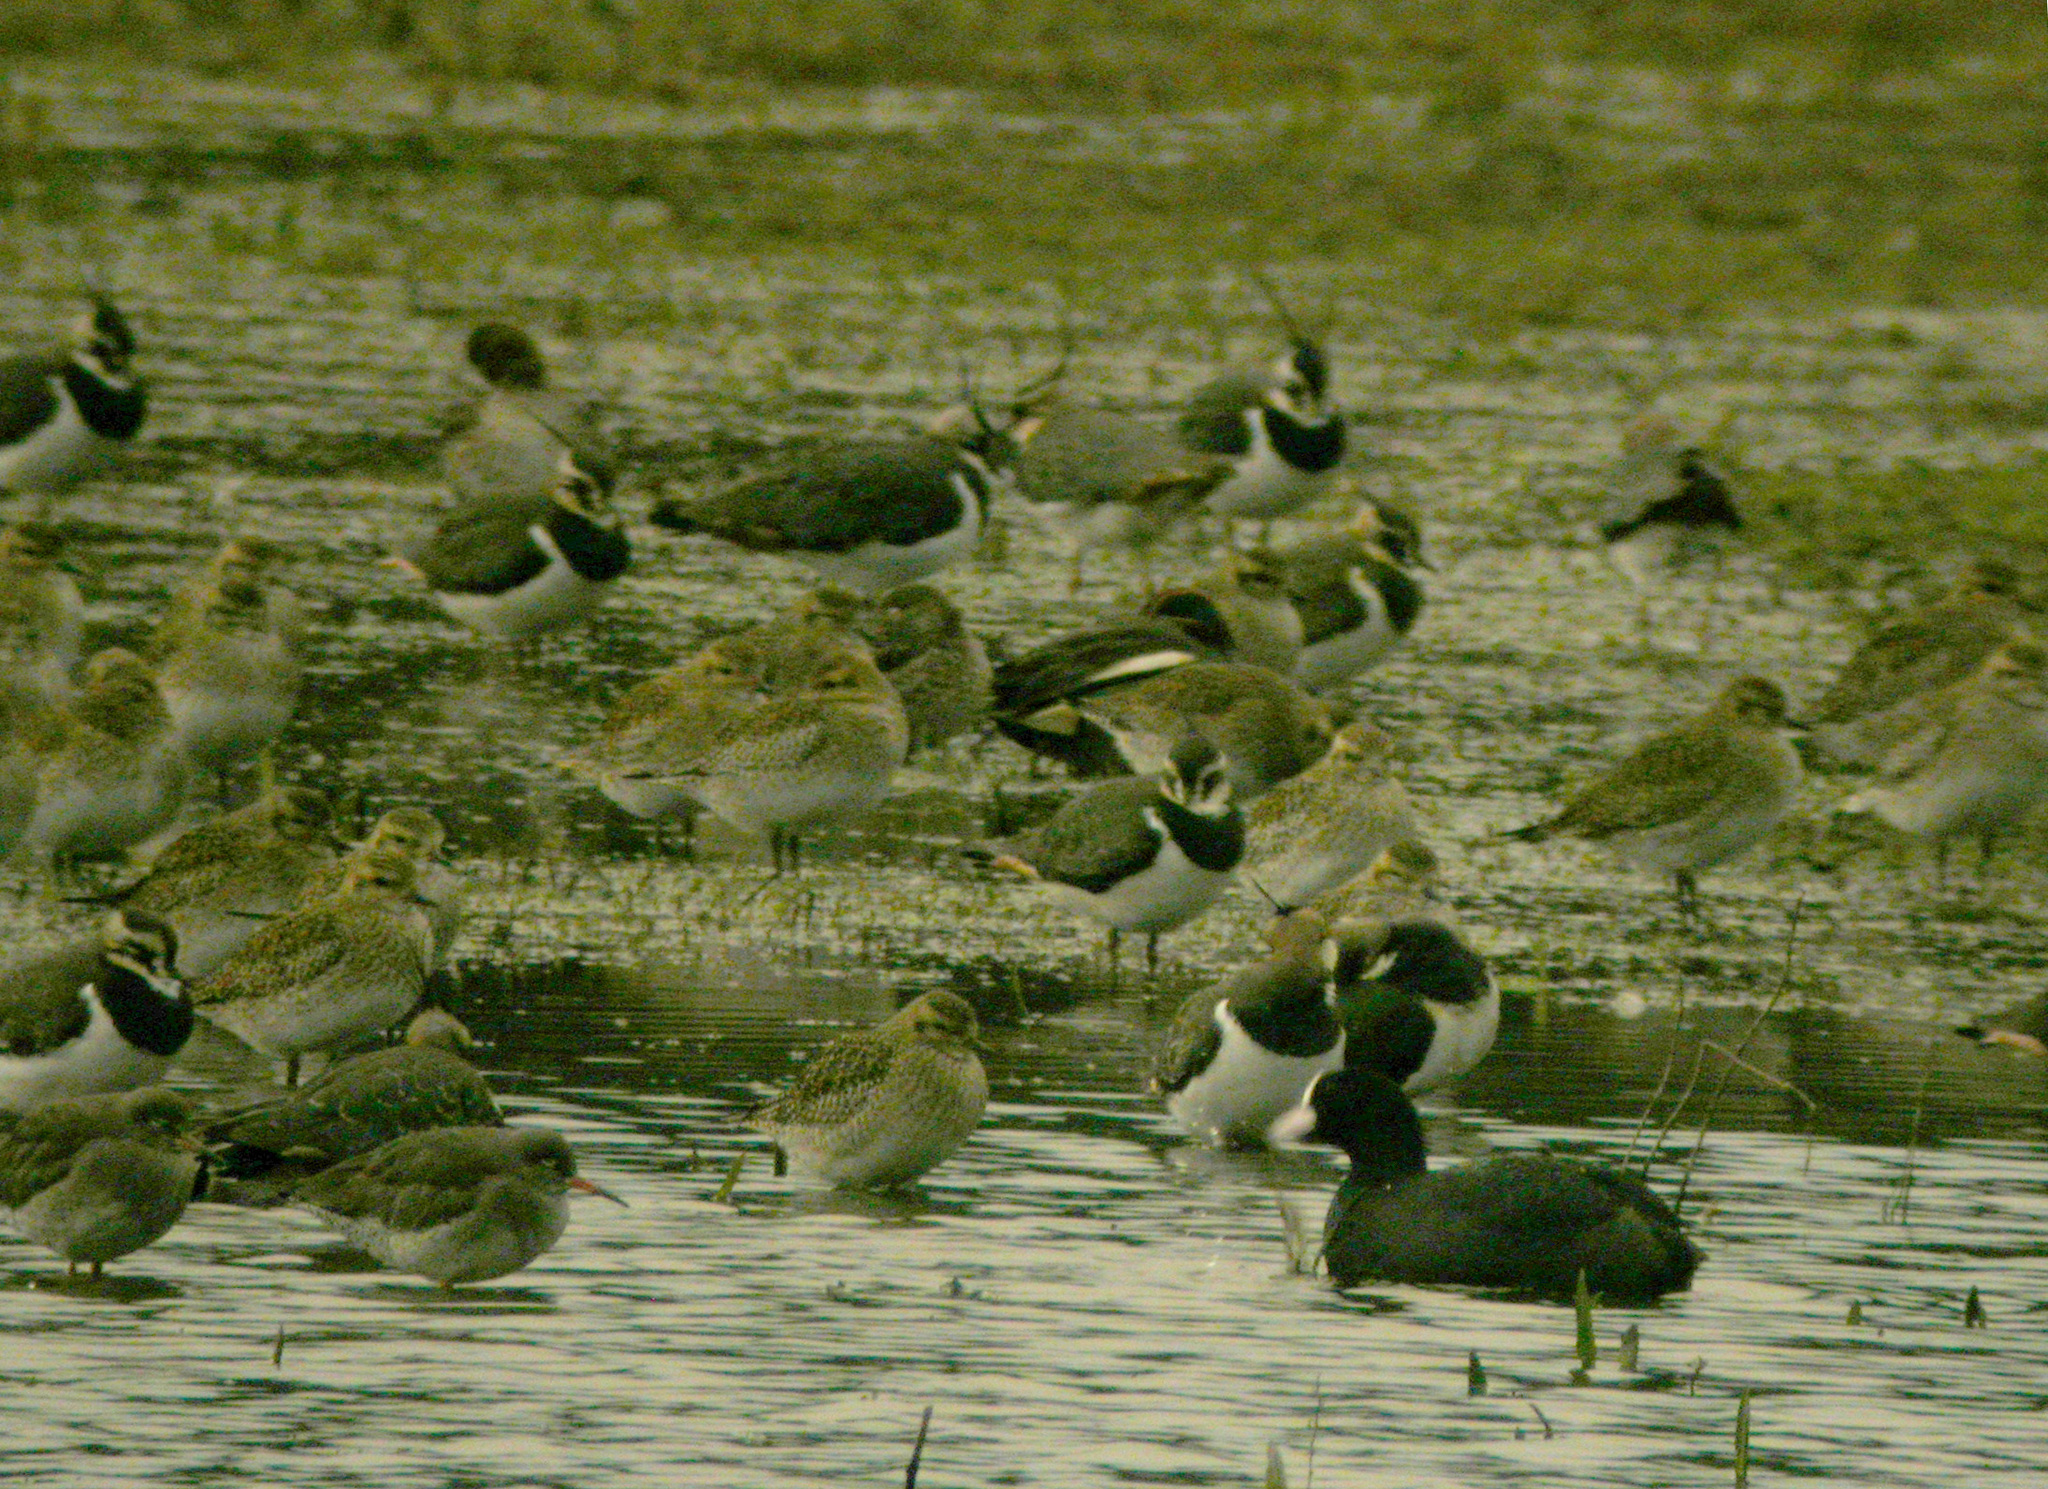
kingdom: Animalia
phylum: Chordata
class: Aves
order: Charadriiformes
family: Charadriidae
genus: Pluvialis
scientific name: Pluvialis apricaria
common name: European golden plover
